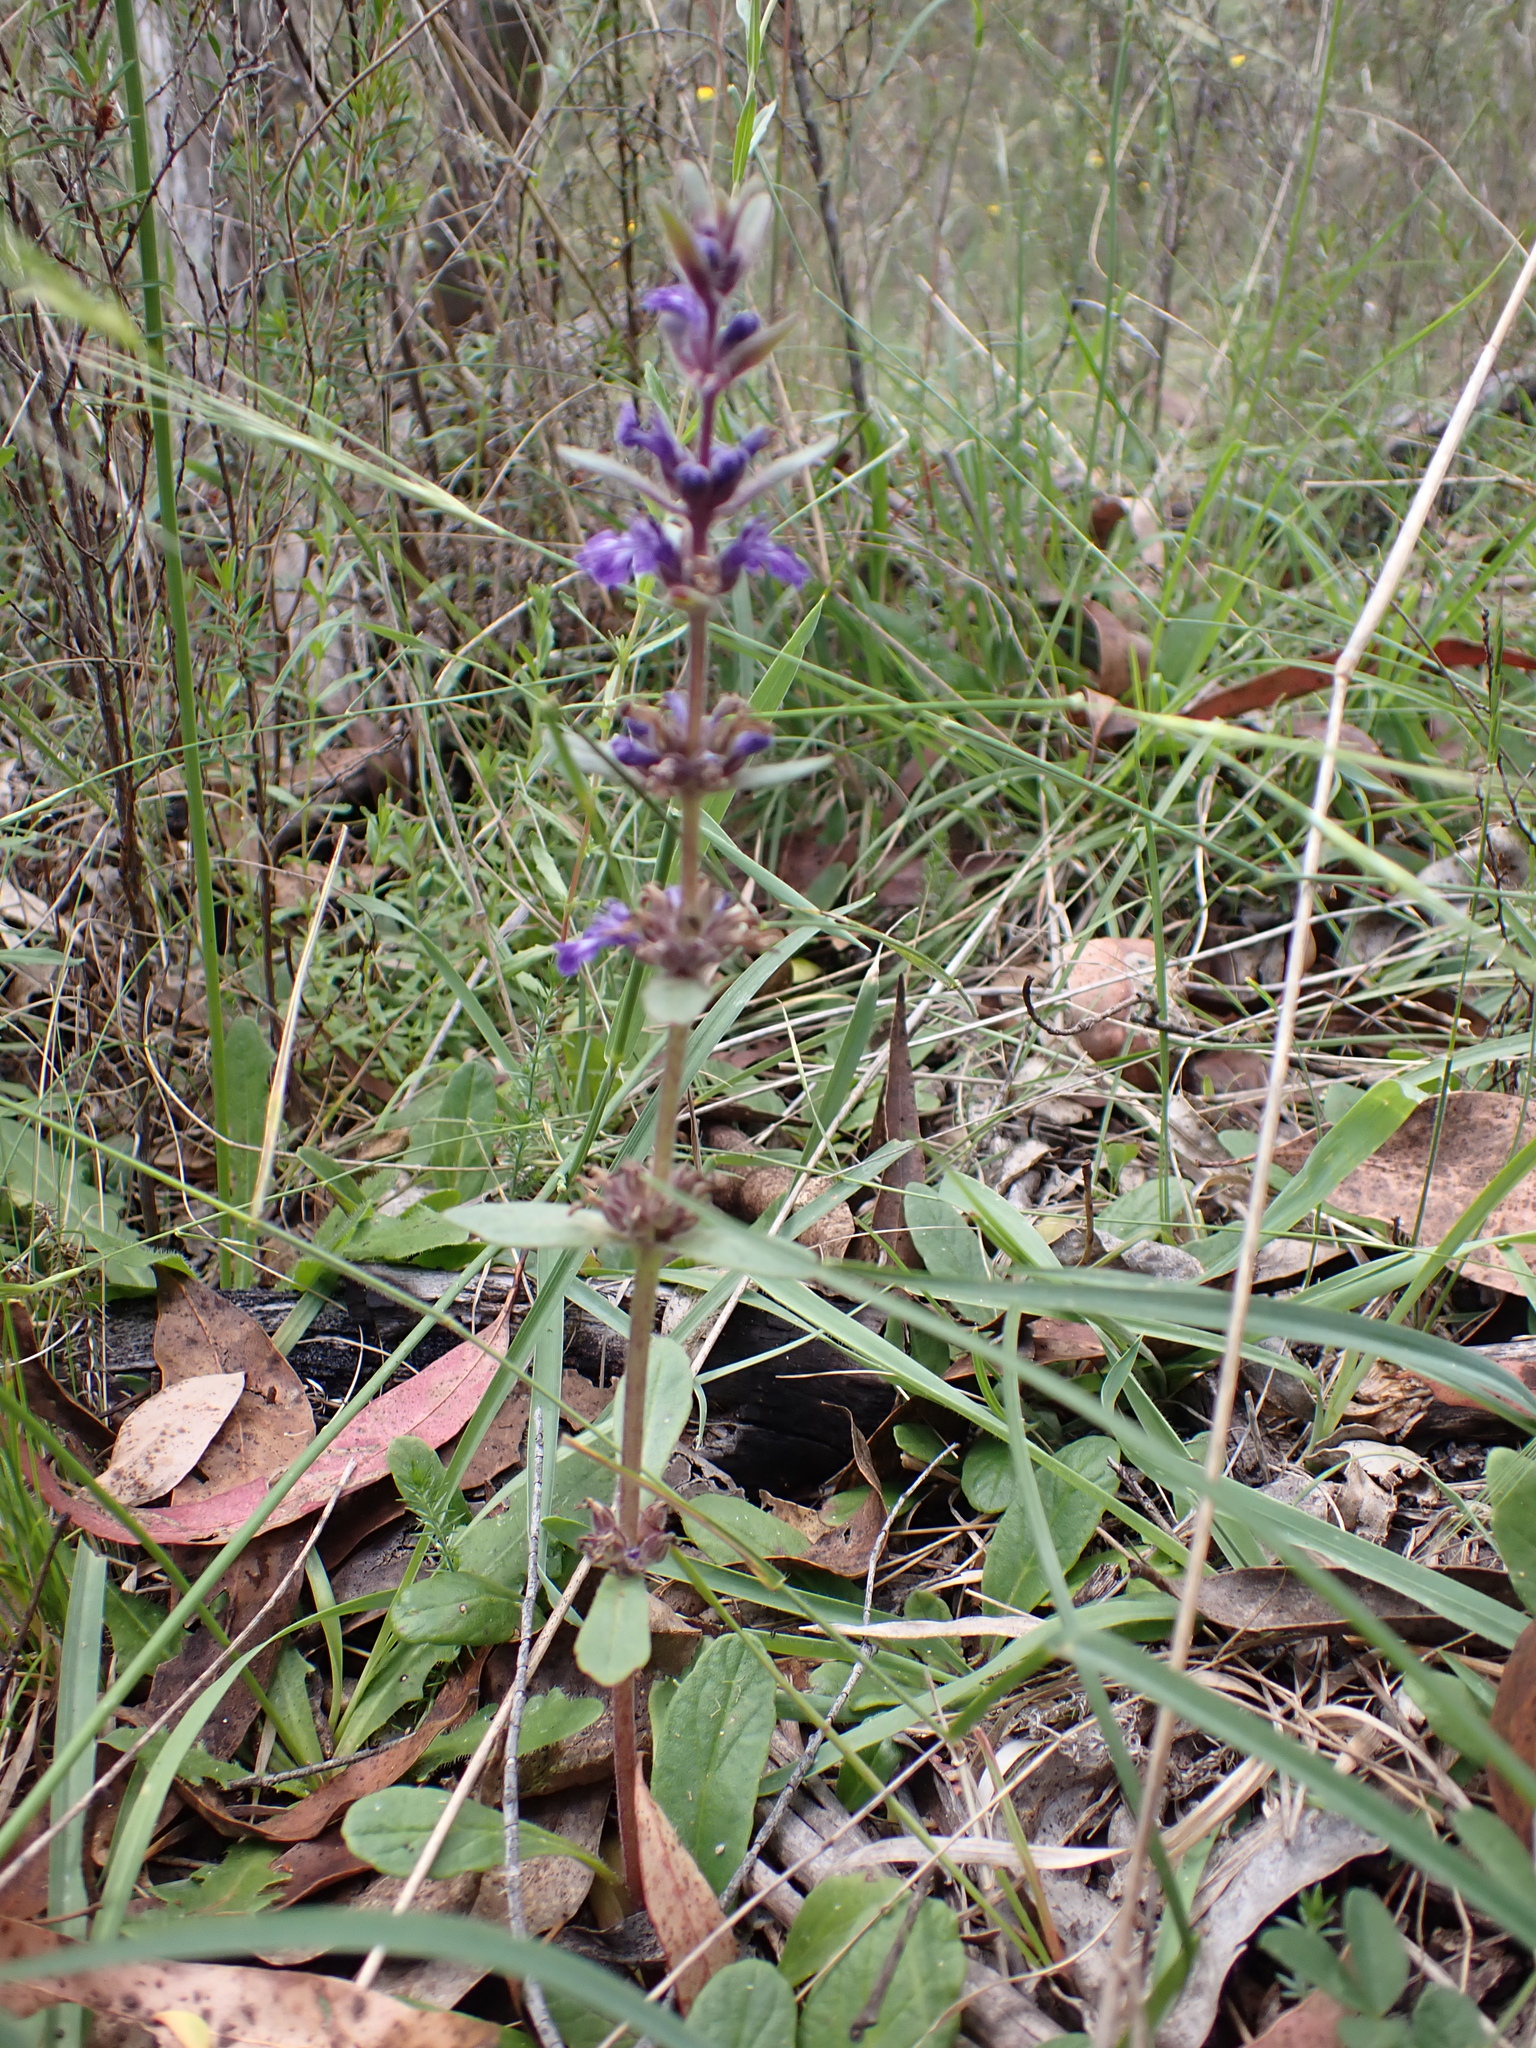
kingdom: Plantae
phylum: Tracheophyta
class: Magnoliopsida
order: Lamiales
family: Lamiaceae
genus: Ajuga
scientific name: Ajuga australis
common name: Australian bugle
